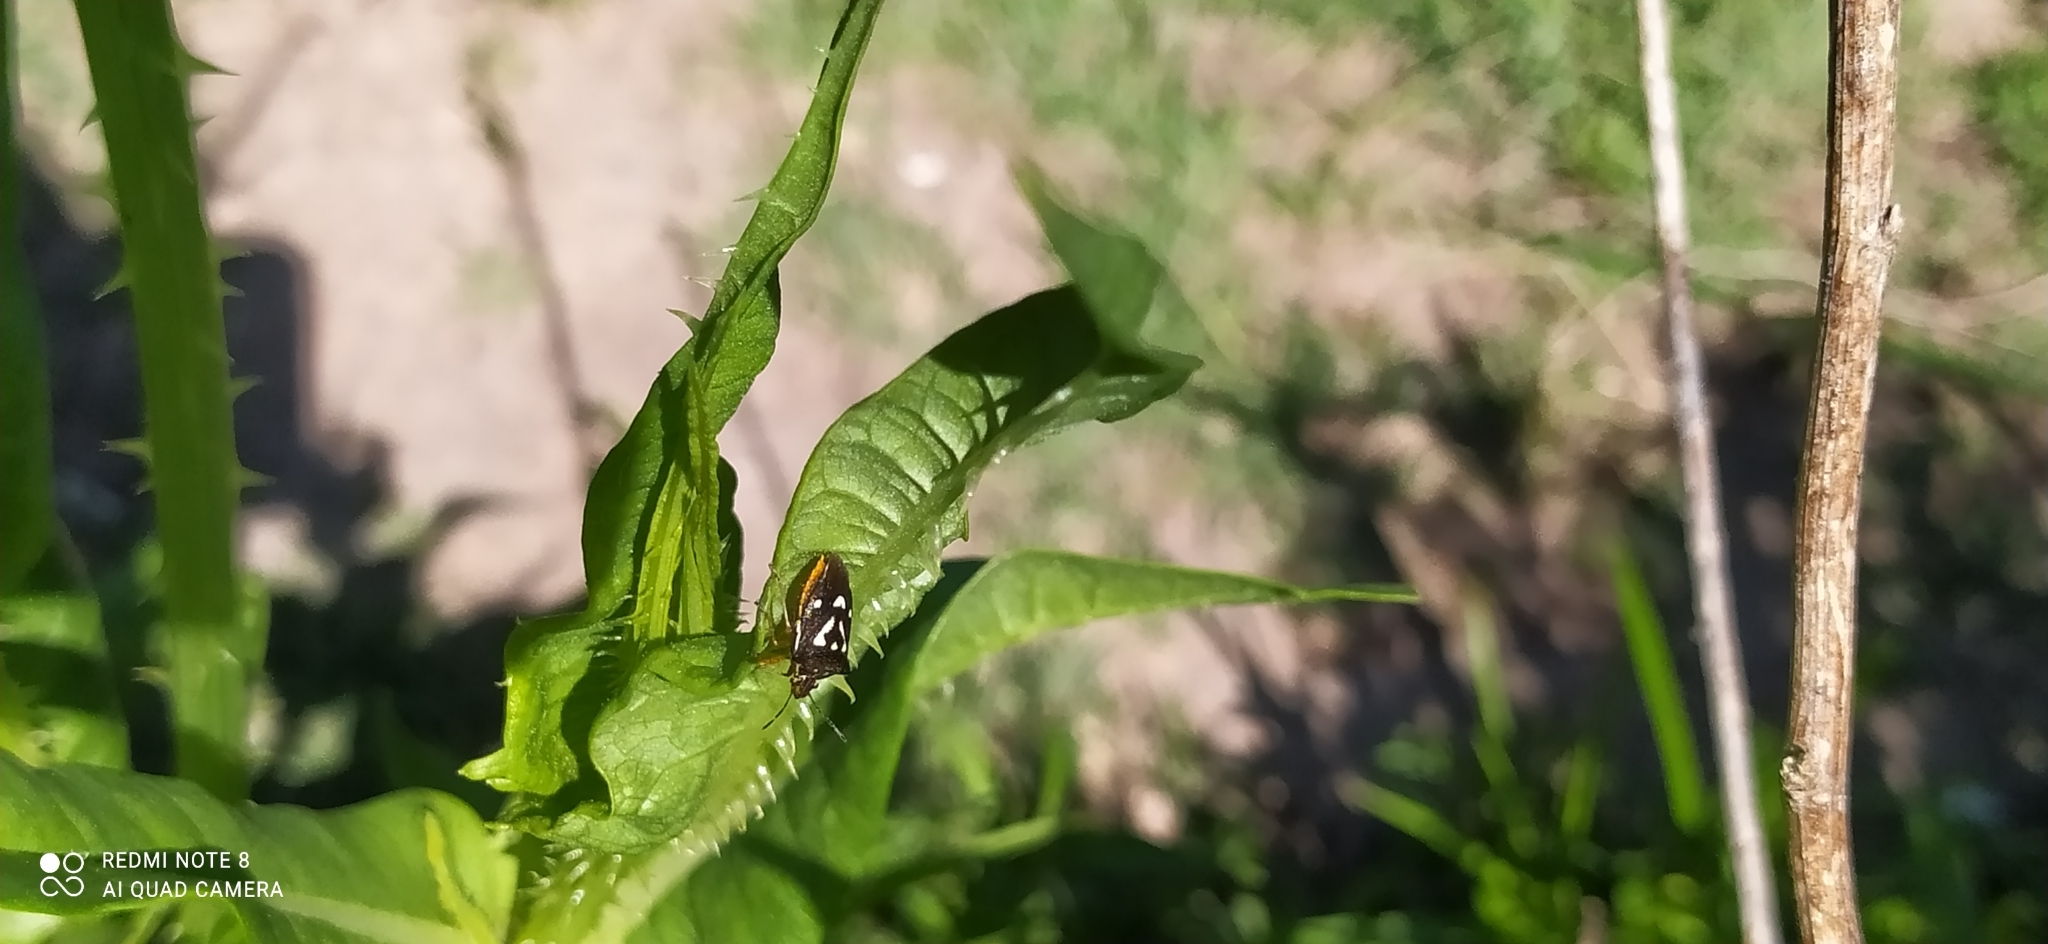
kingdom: Animalia
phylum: Arthropoda
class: Insecta
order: Hemiptera
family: Pentatomidae
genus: Mormidea
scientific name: Mormidea v-luteum
